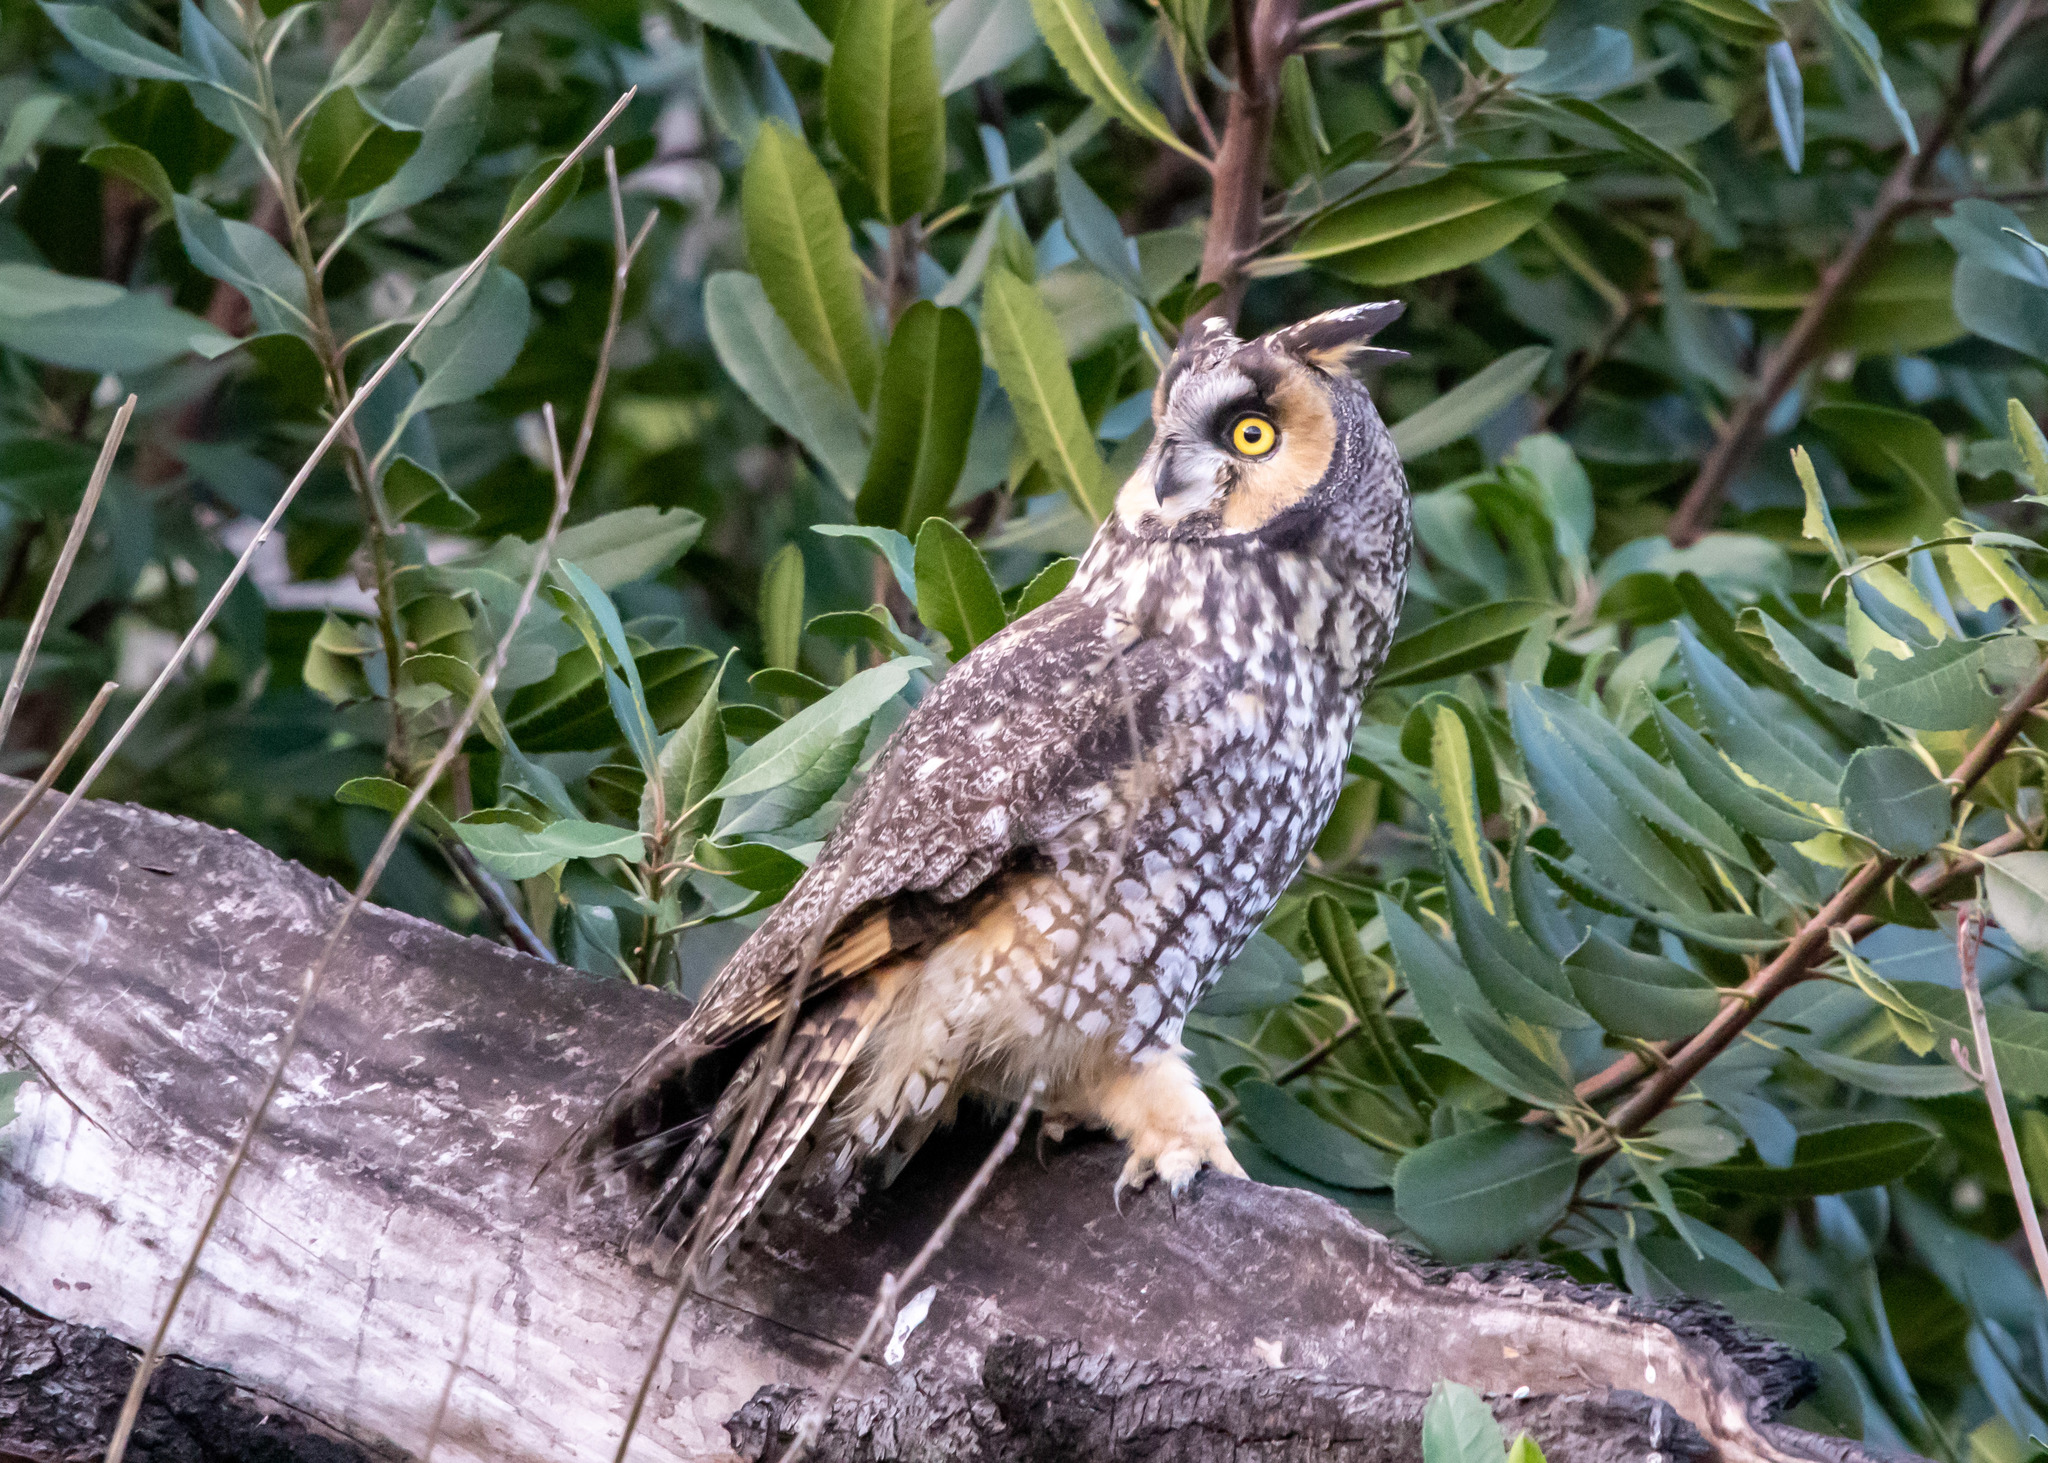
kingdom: Animalia
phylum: Chordata
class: Aves
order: Strigiformes
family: Strigidae
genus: Asio
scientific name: Asio otus
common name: Long-eared owl
